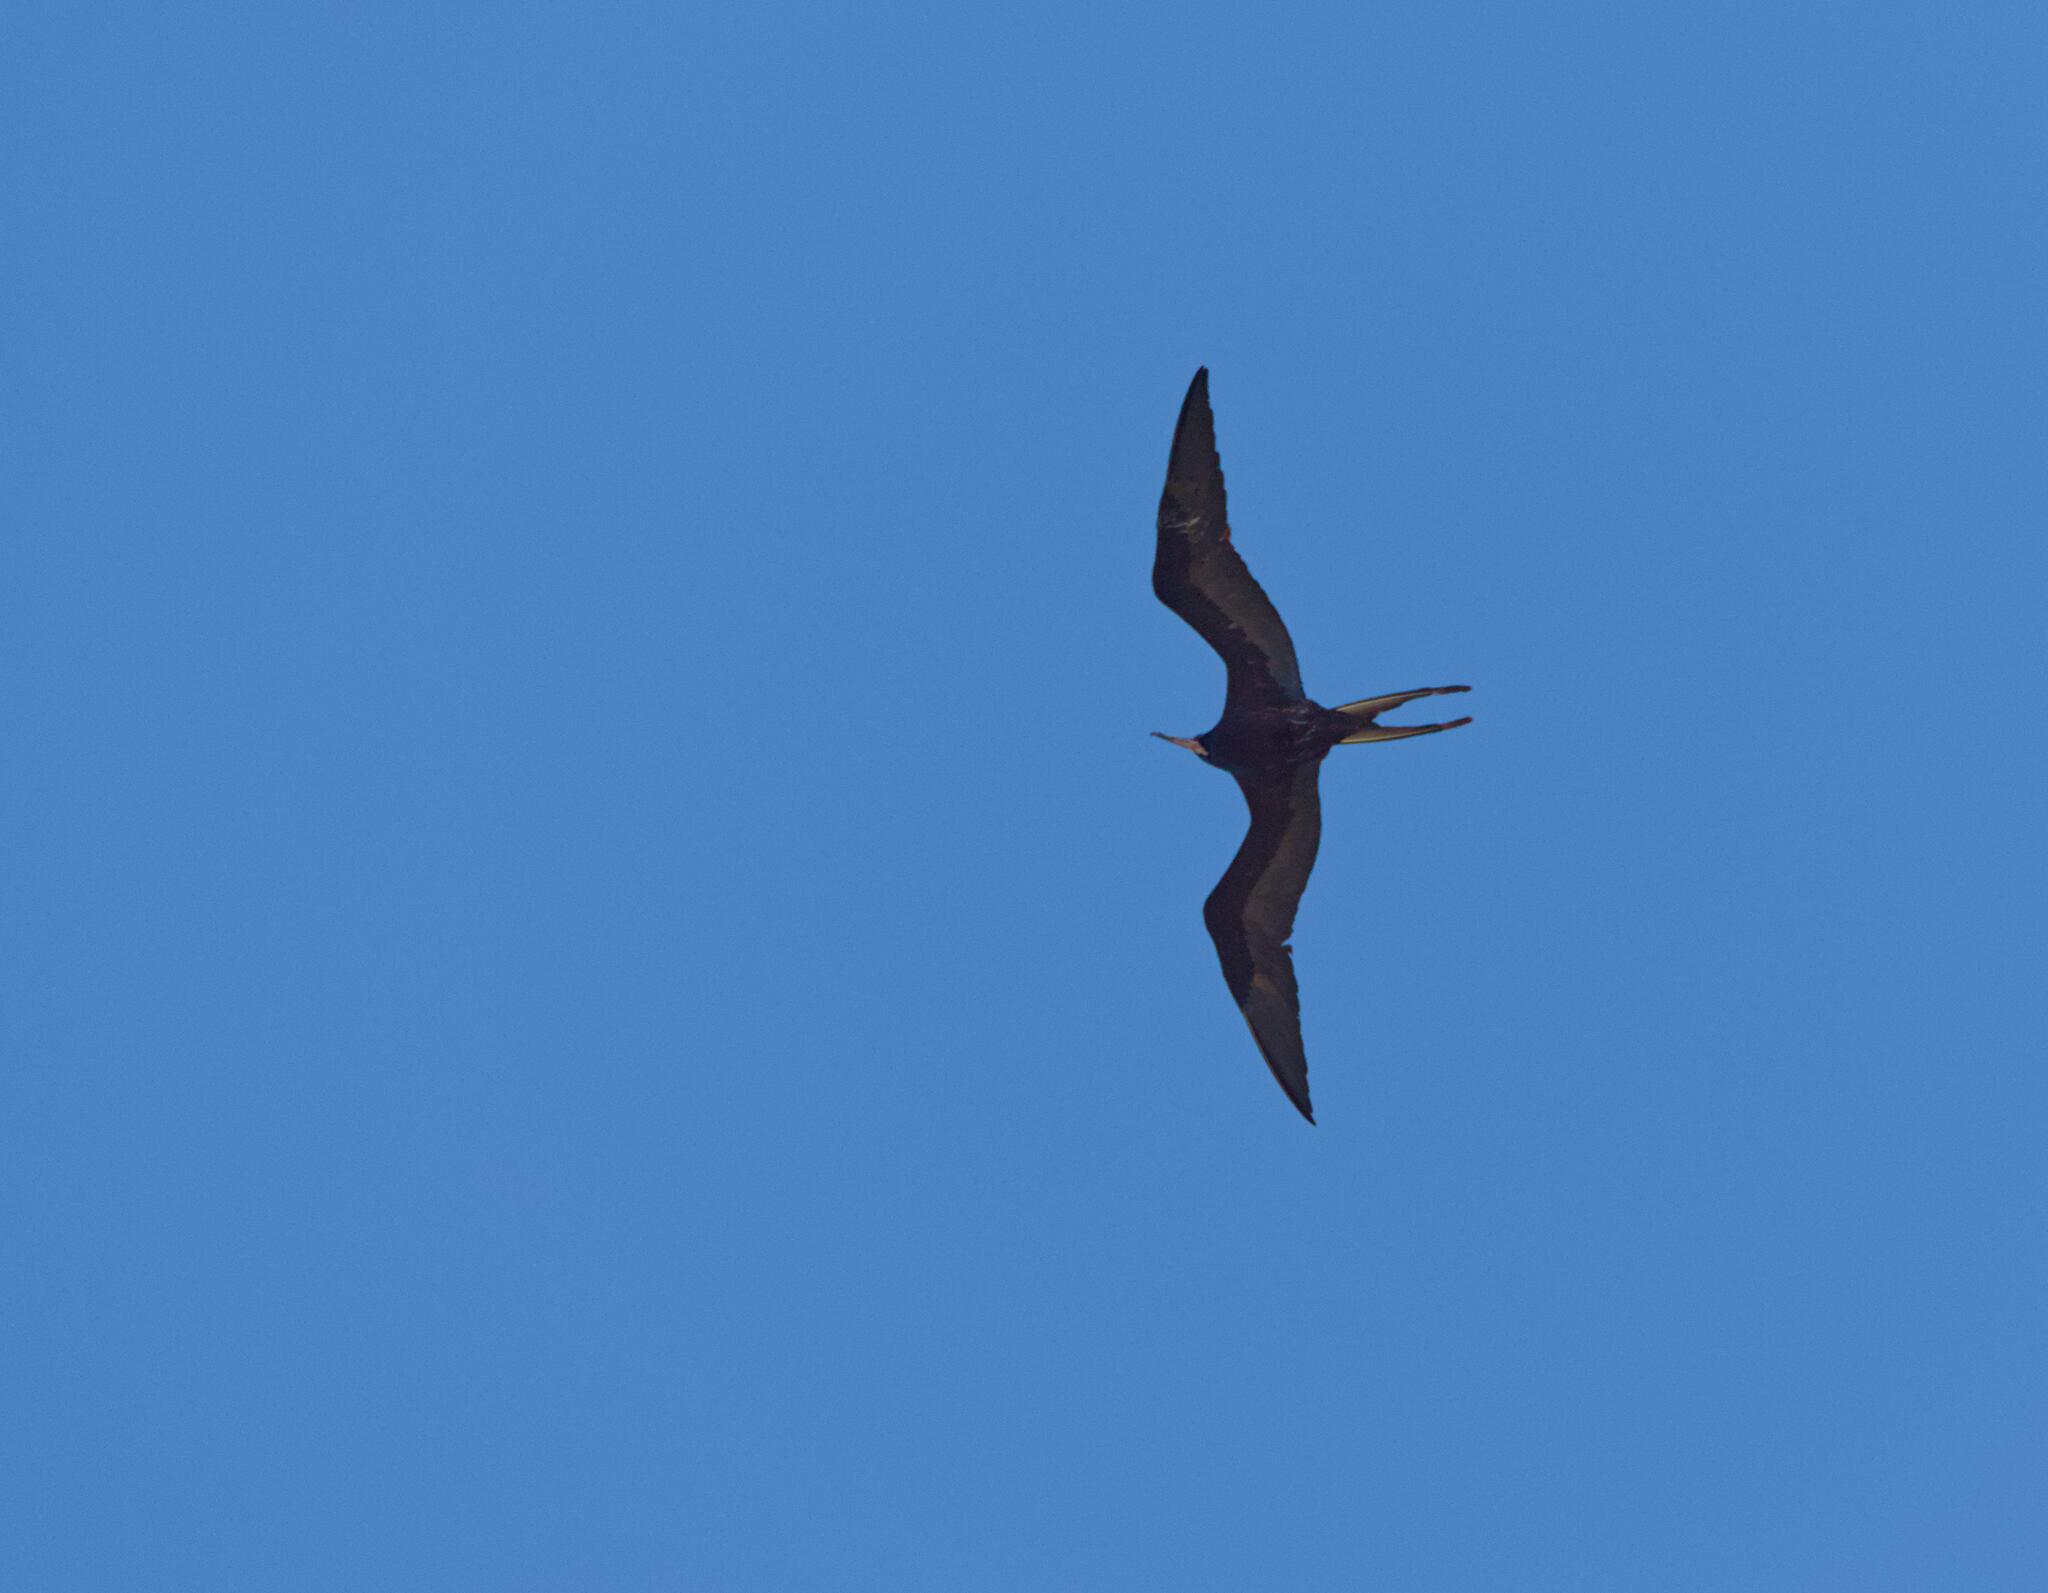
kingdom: Animalia
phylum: Chordata
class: Aves
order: Suliformes
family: Fregatidae
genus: Fregata
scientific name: Fregata magnificens
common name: Magnificent frigatebird
